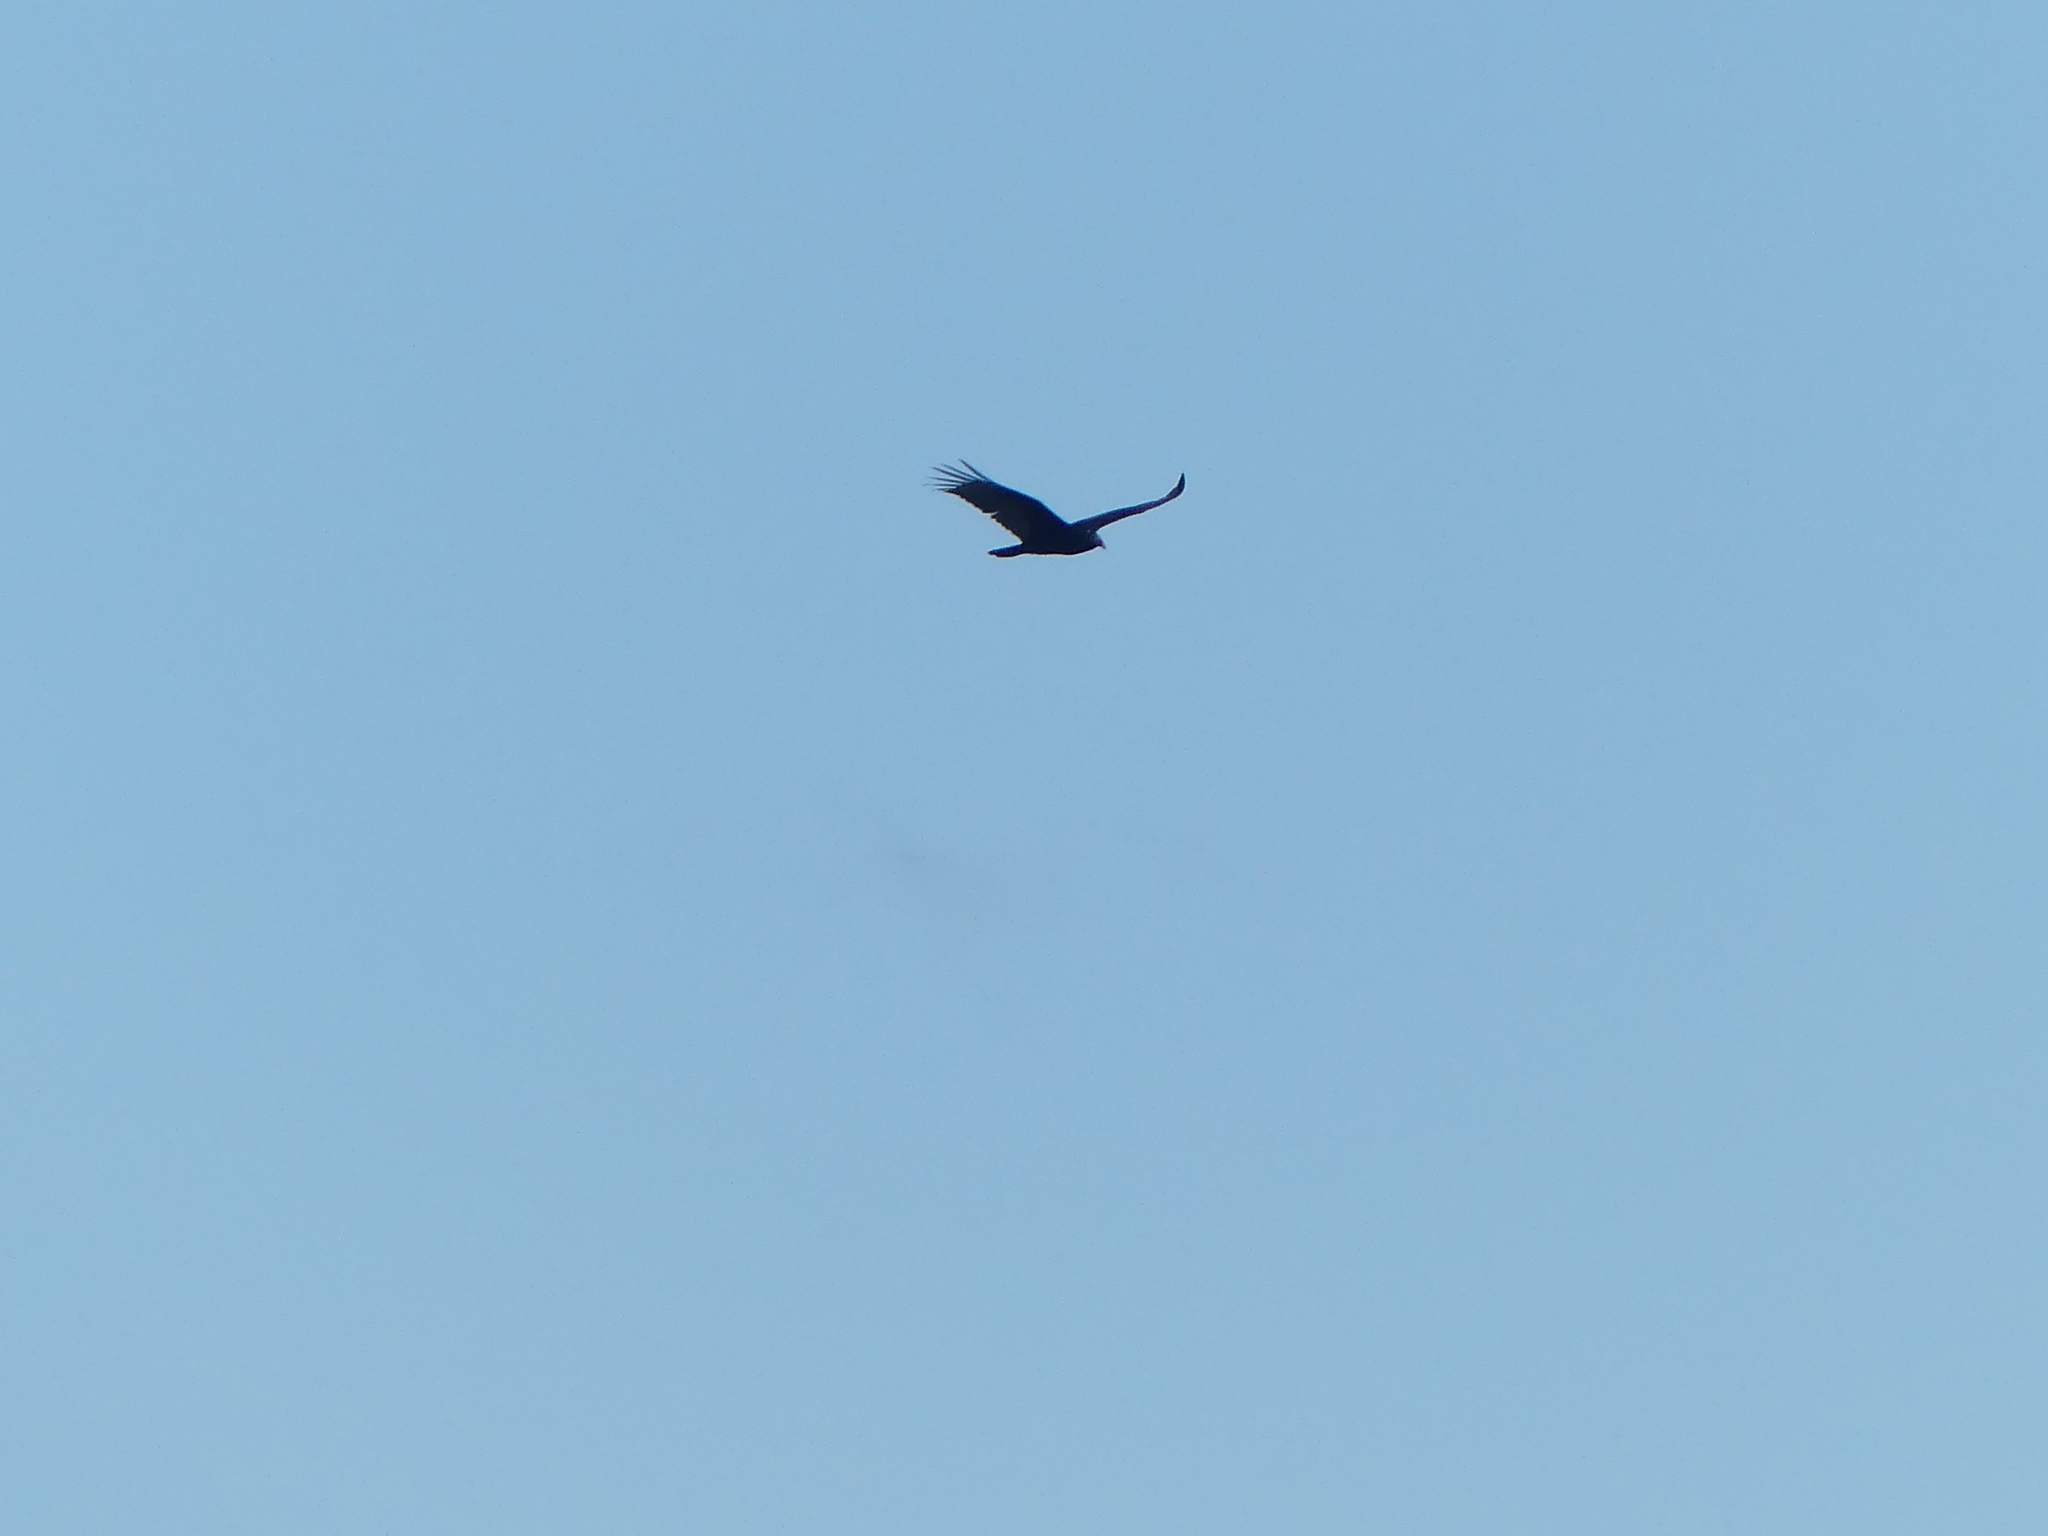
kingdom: Animalia
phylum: Chordata
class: Aves
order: Accipitriformes
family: Cathartidae
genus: Cathartes
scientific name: Cathartes aura
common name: Turkey vulture
